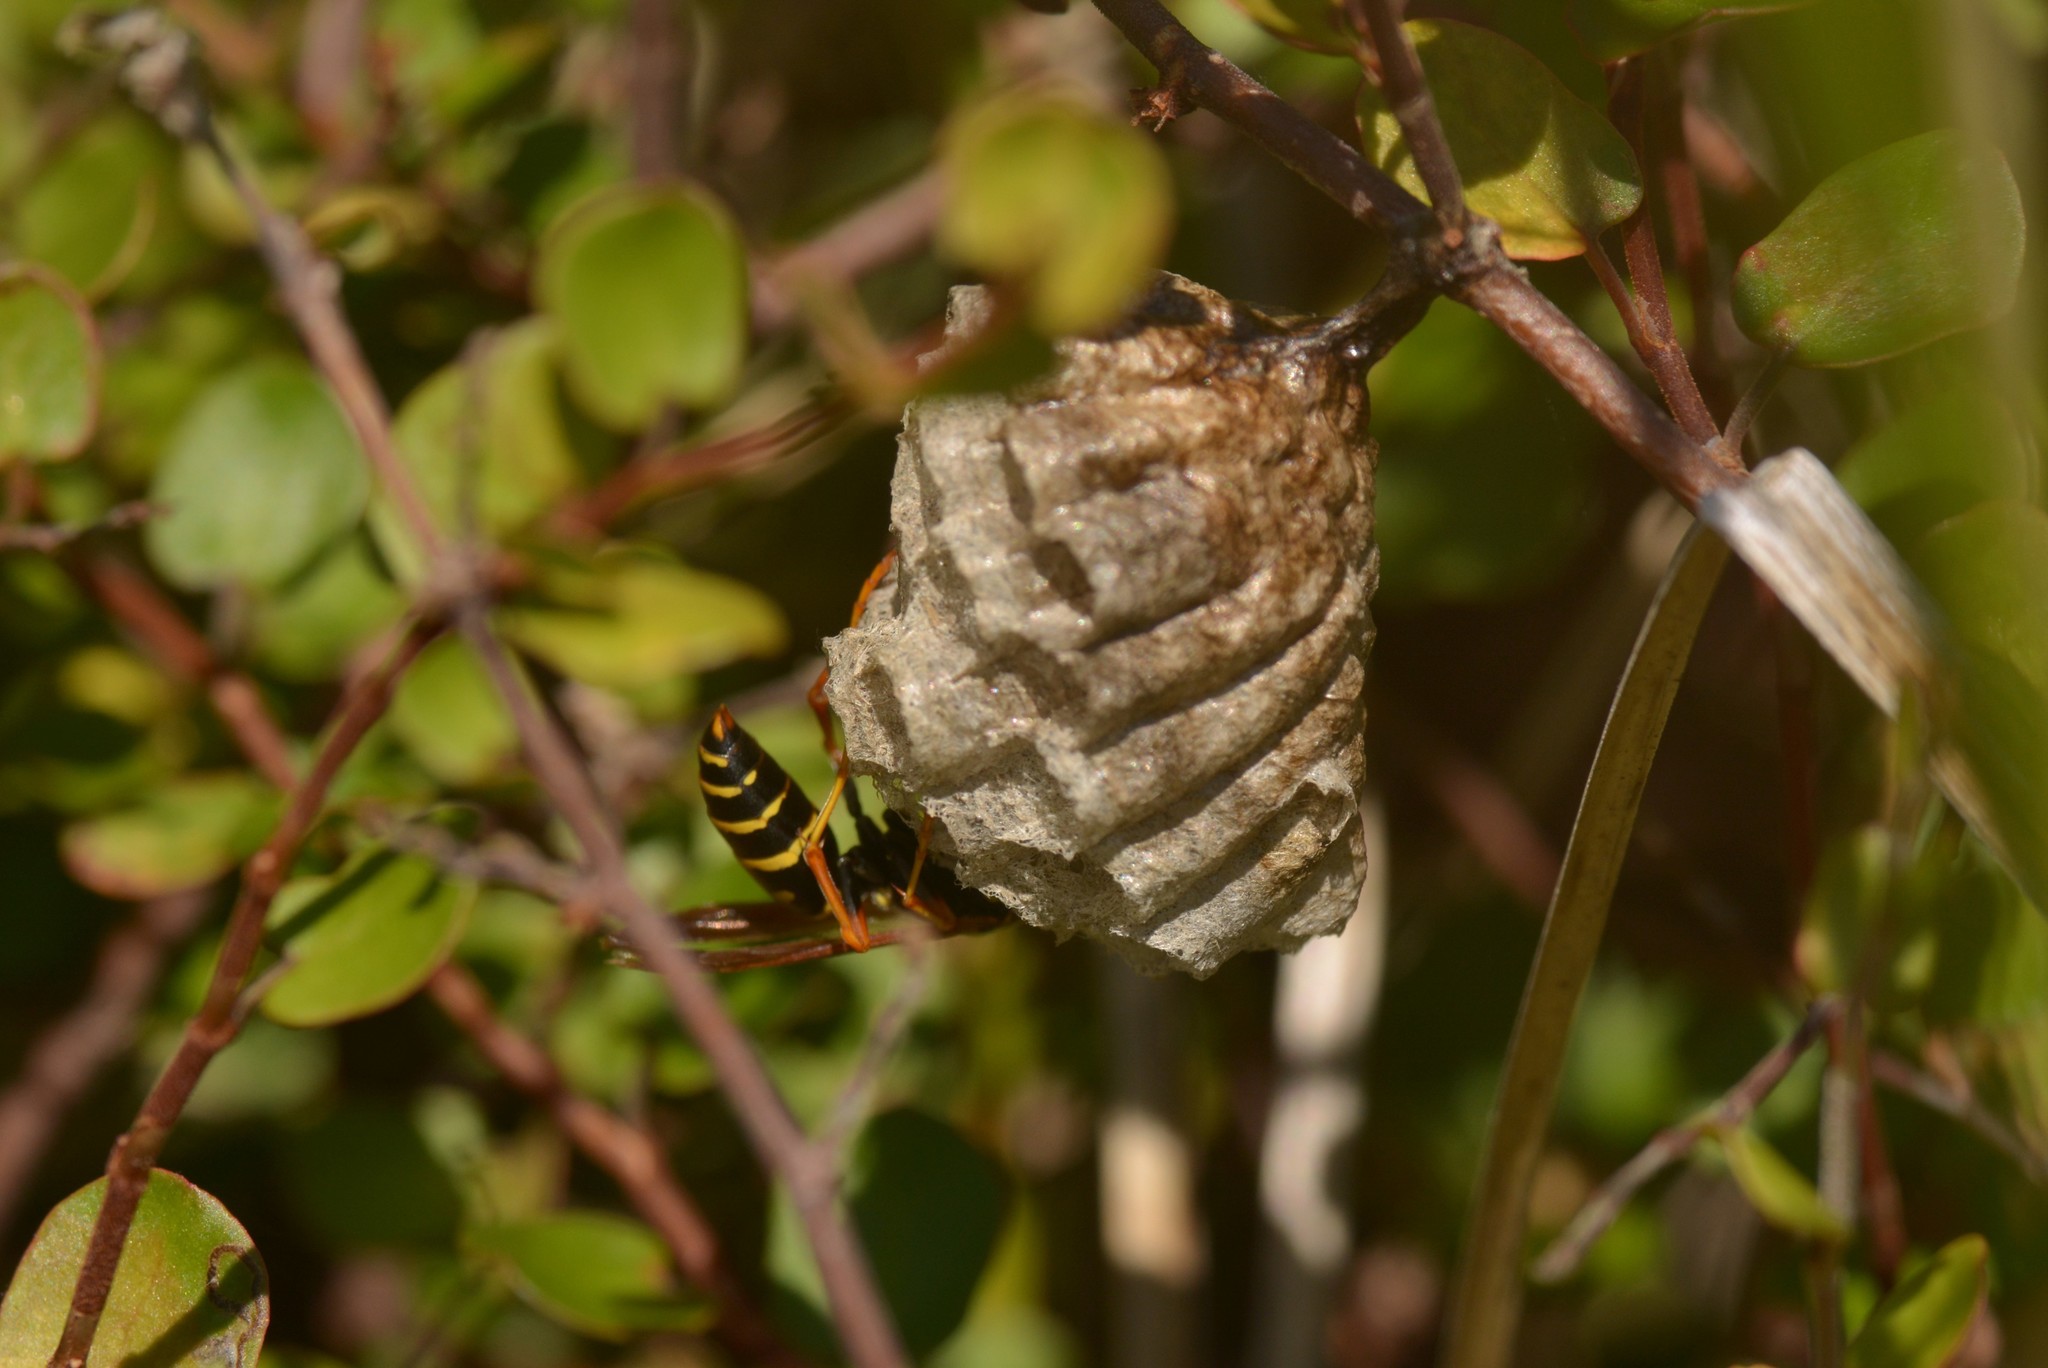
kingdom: Animalia
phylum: Arthropoda
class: Insecta
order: Hymenoptera
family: Eumenidae
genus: Polistes
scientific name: Polistes chinensis
